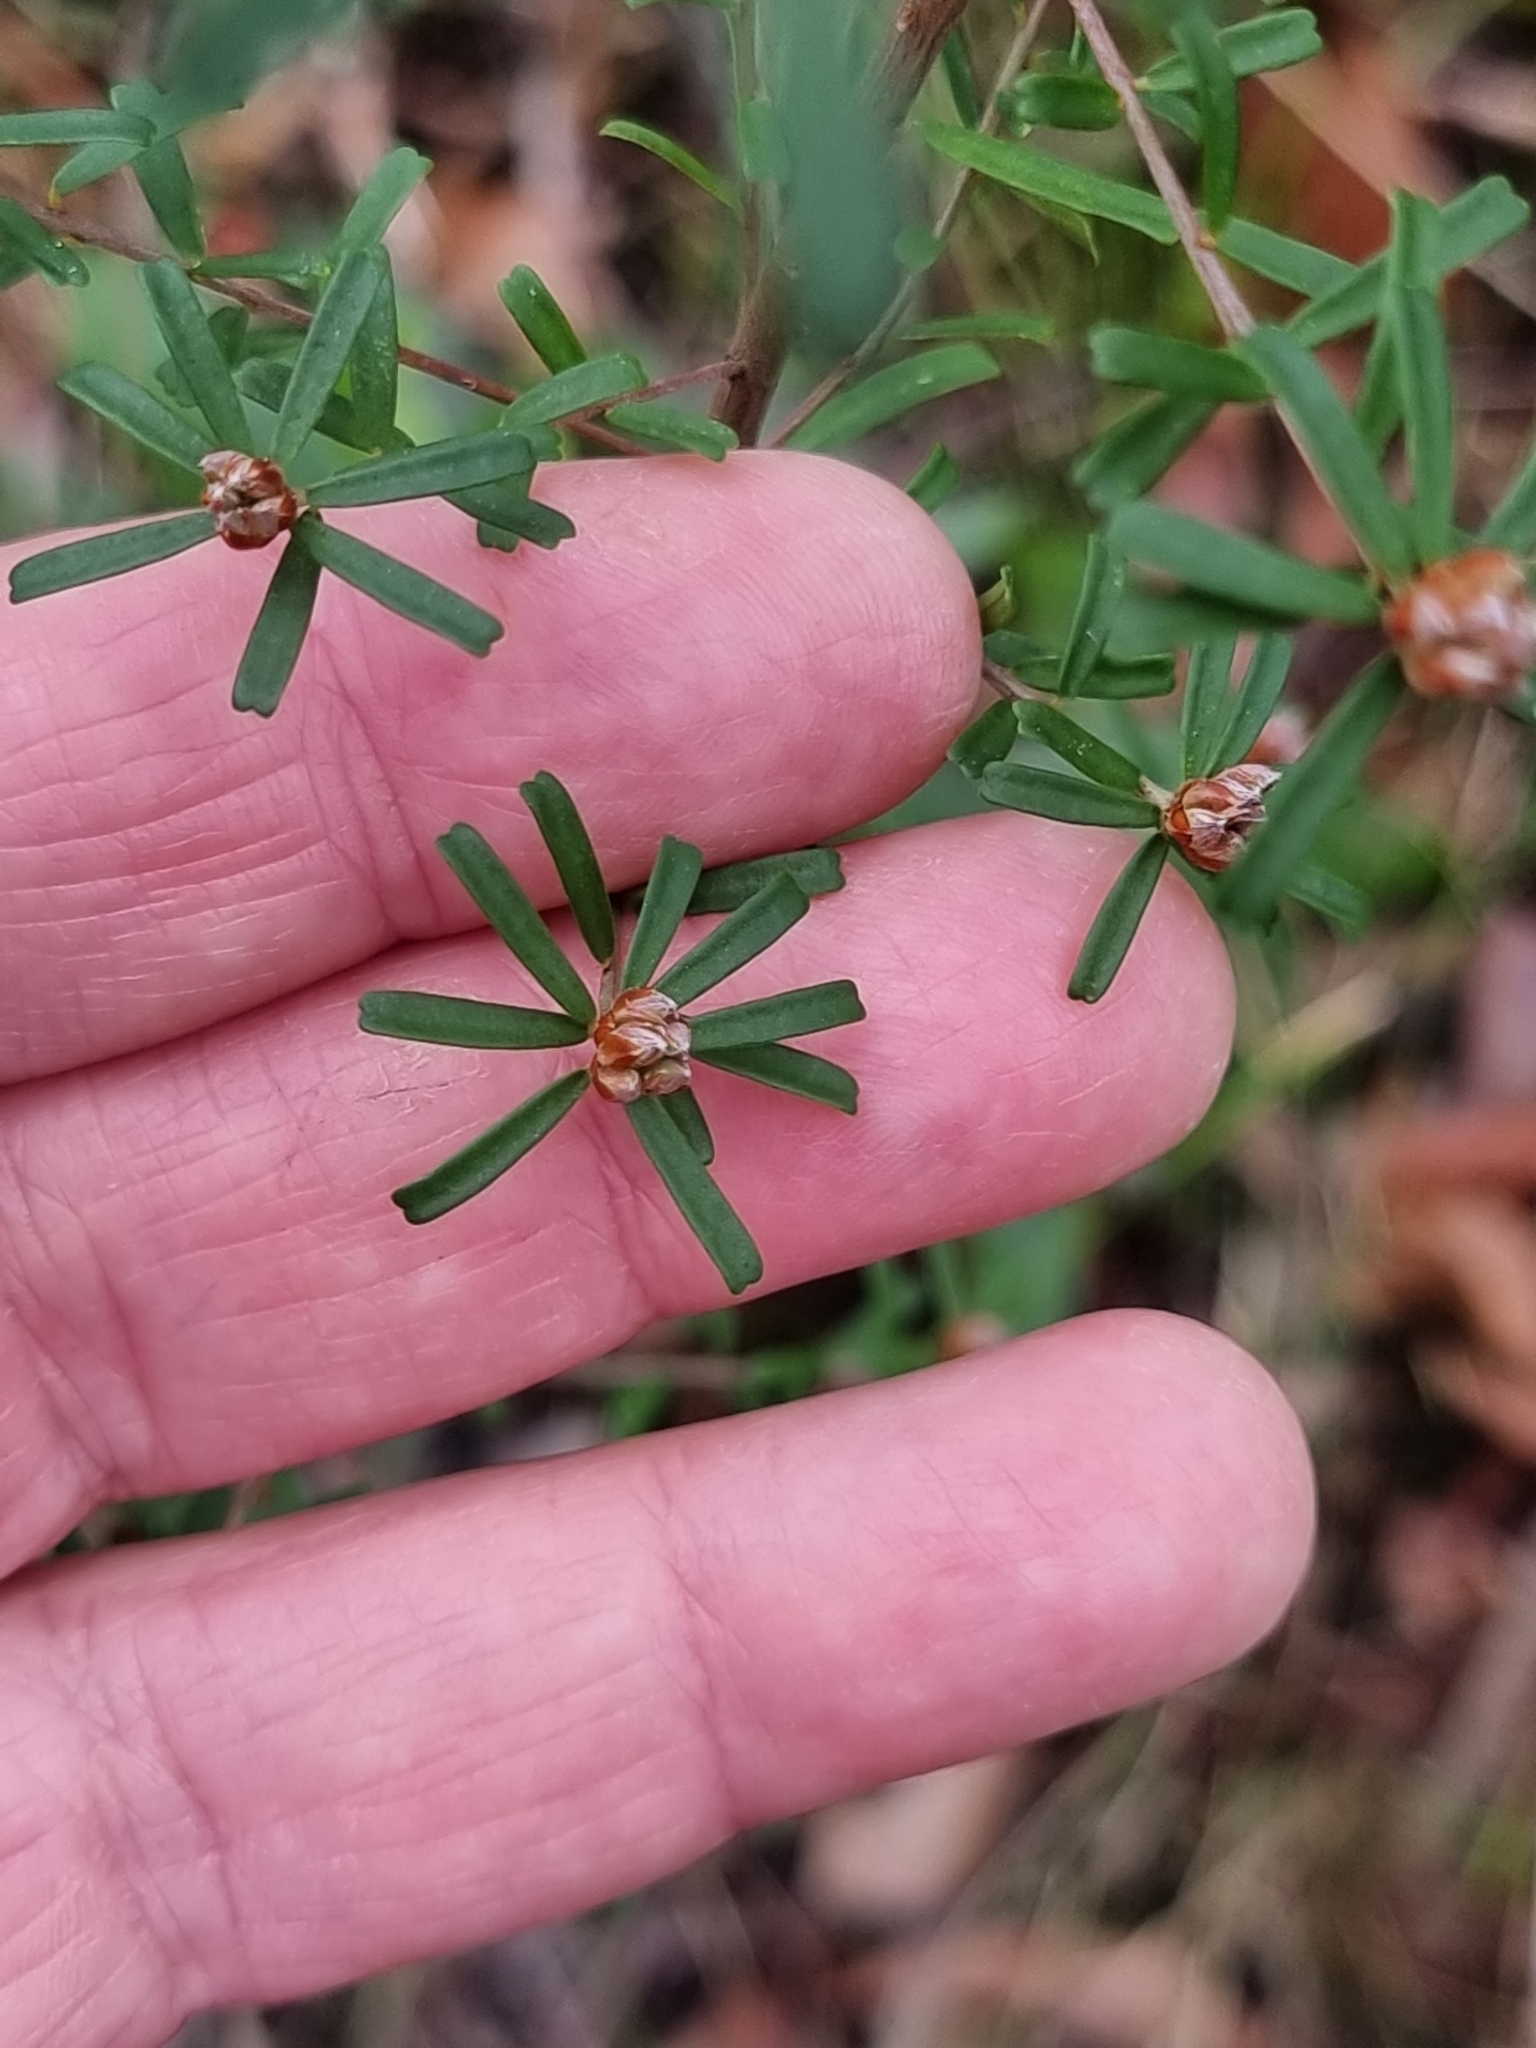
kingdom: Plantae
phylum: Tracheophyta
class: Magnoliopsida
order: Fabales
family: Fabaceae
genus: Pultenaea
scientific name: Pultenaea retusa
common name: Blunt bush-pea
